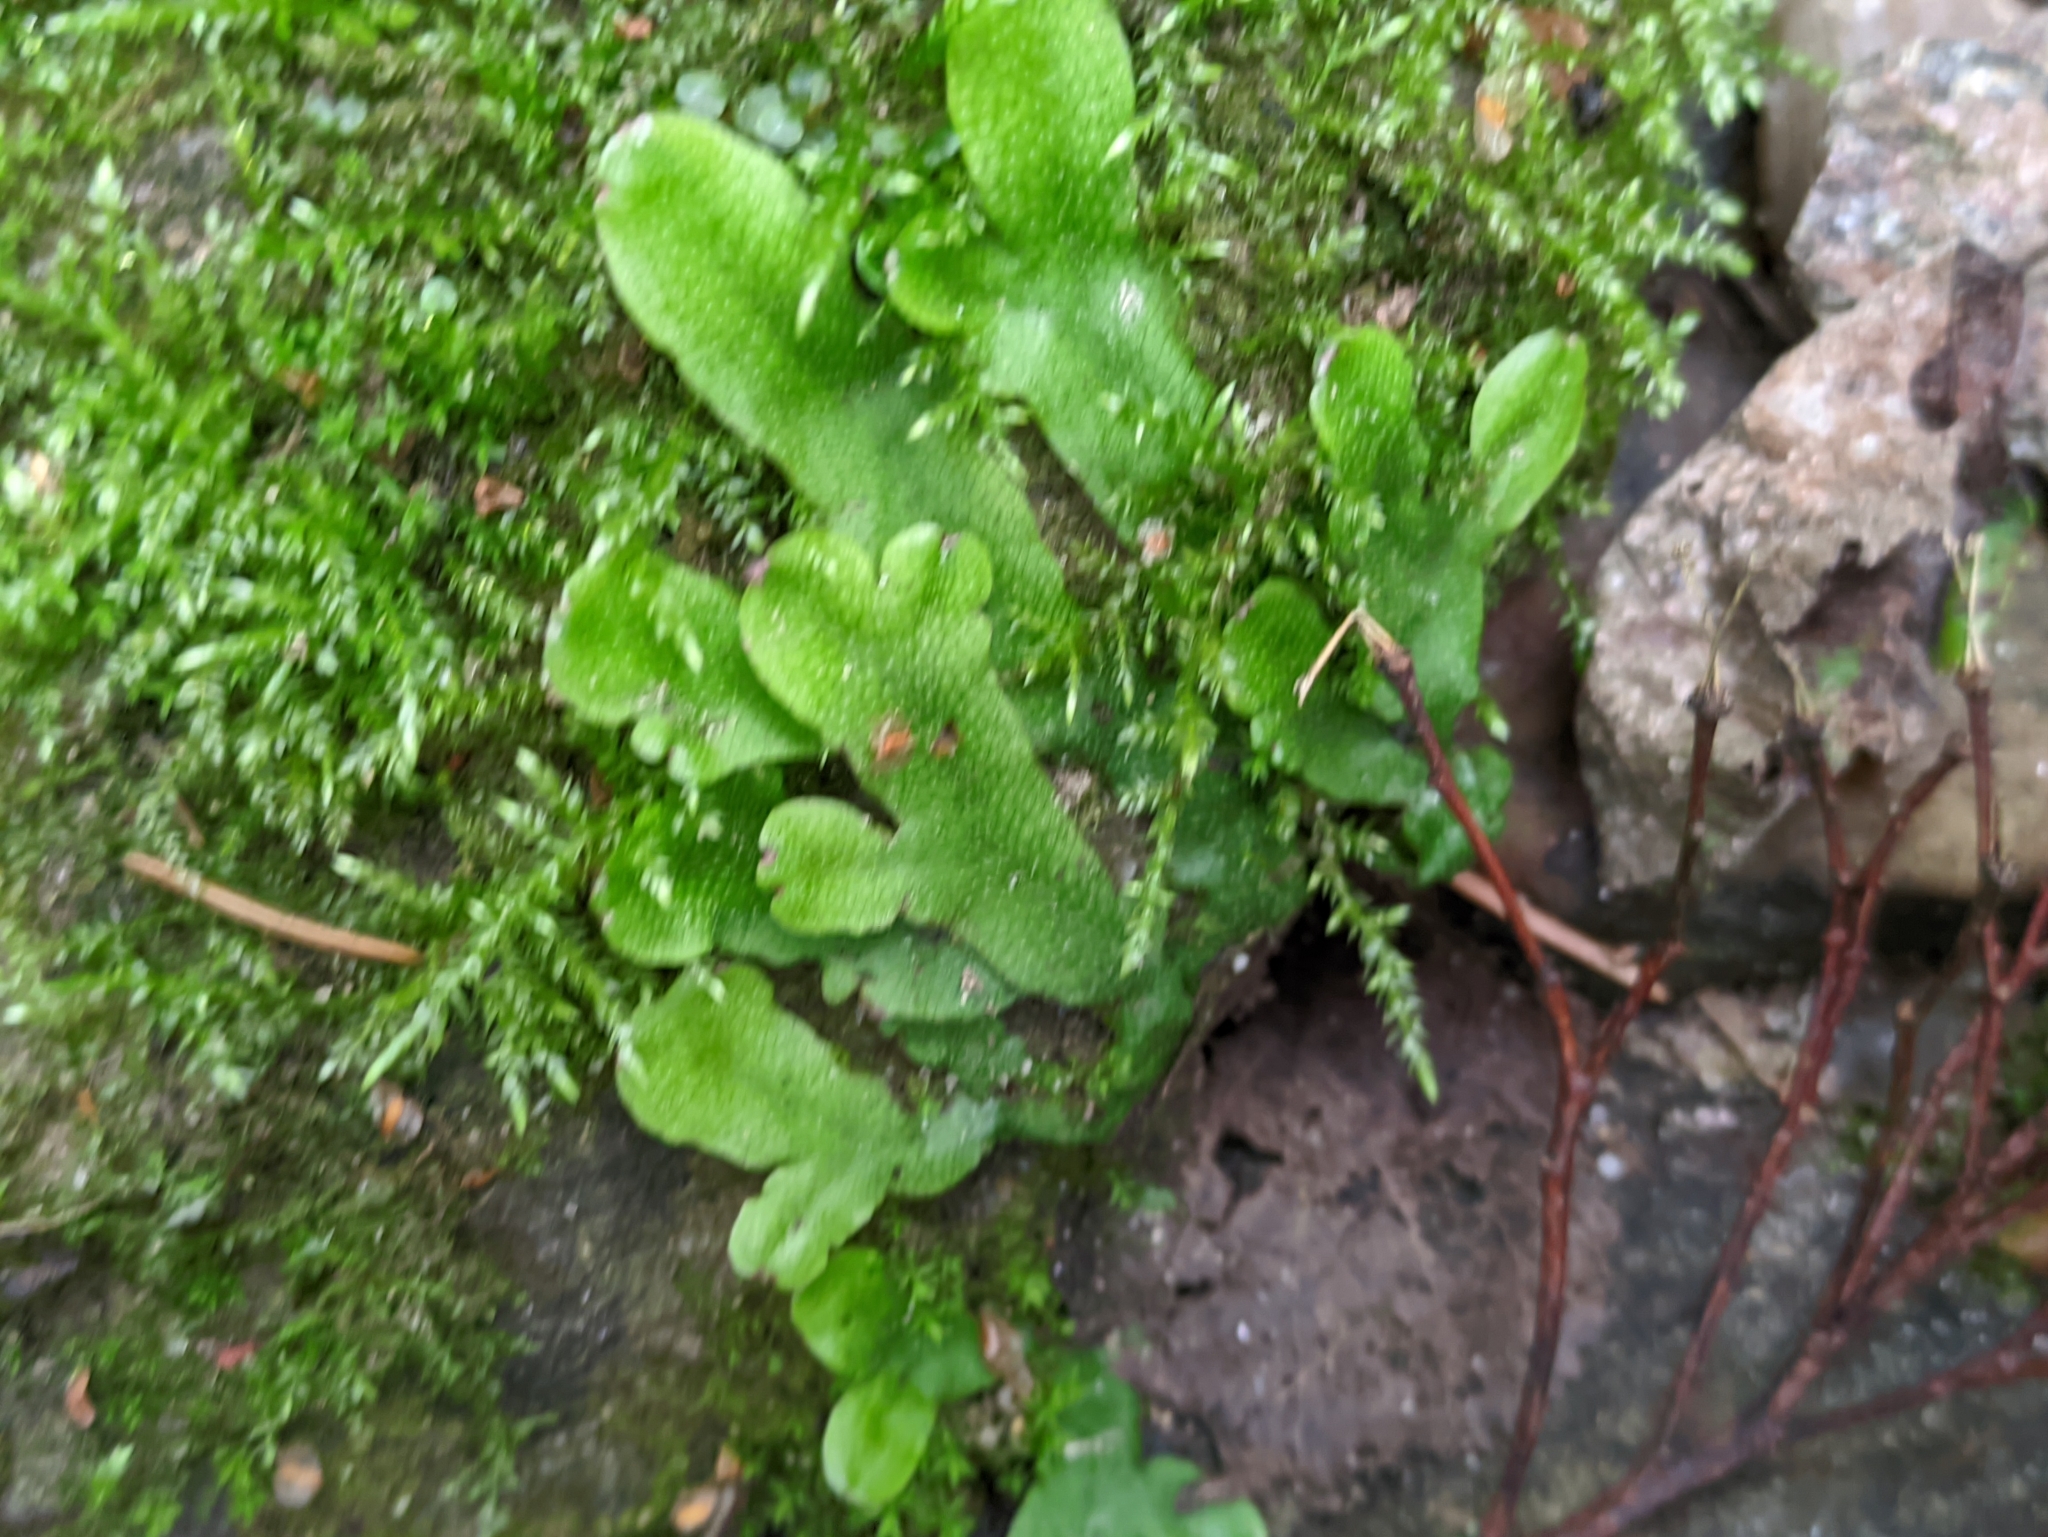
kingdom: Plantae
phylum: Marchantiophyta
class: Marchantiopsida
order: Marchantiales
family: Conocephalaceae
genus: Conocephalum
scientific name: Conocephalum salebrosum
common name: Cat-tongue liverwort
